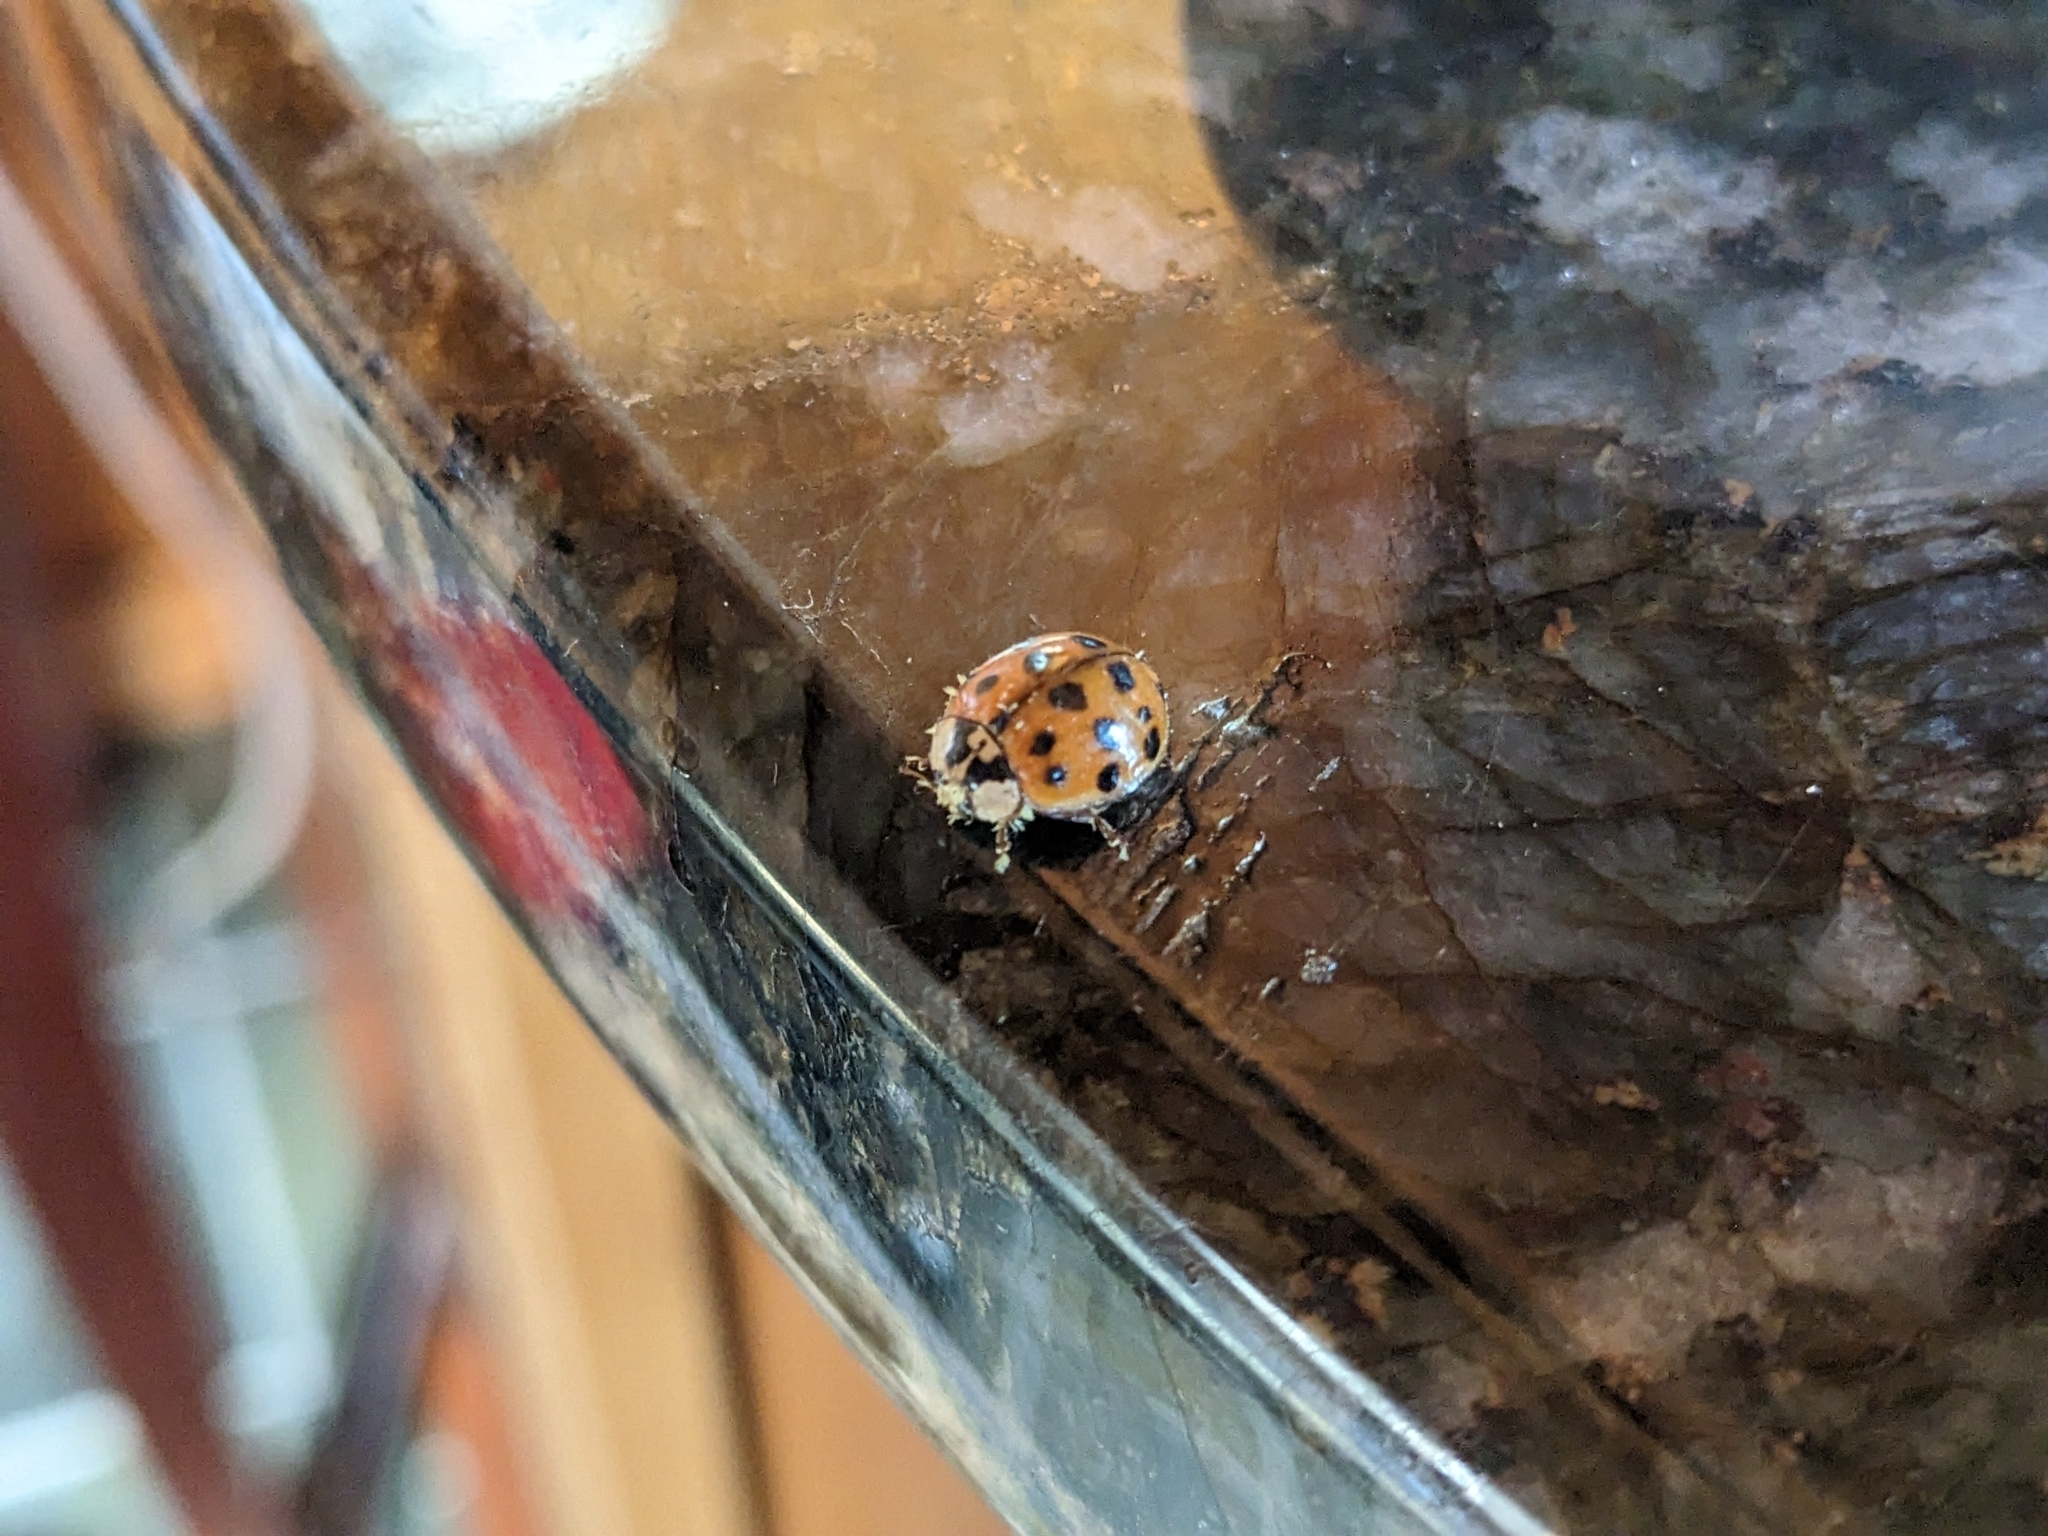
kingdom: Fungi
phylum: Ascomycota
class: Laboulbeniomycetes
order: Laboulbeniales
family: Laboulbeniaceae
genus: Hesperomyces
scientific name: Hesperomyces harmoniae
